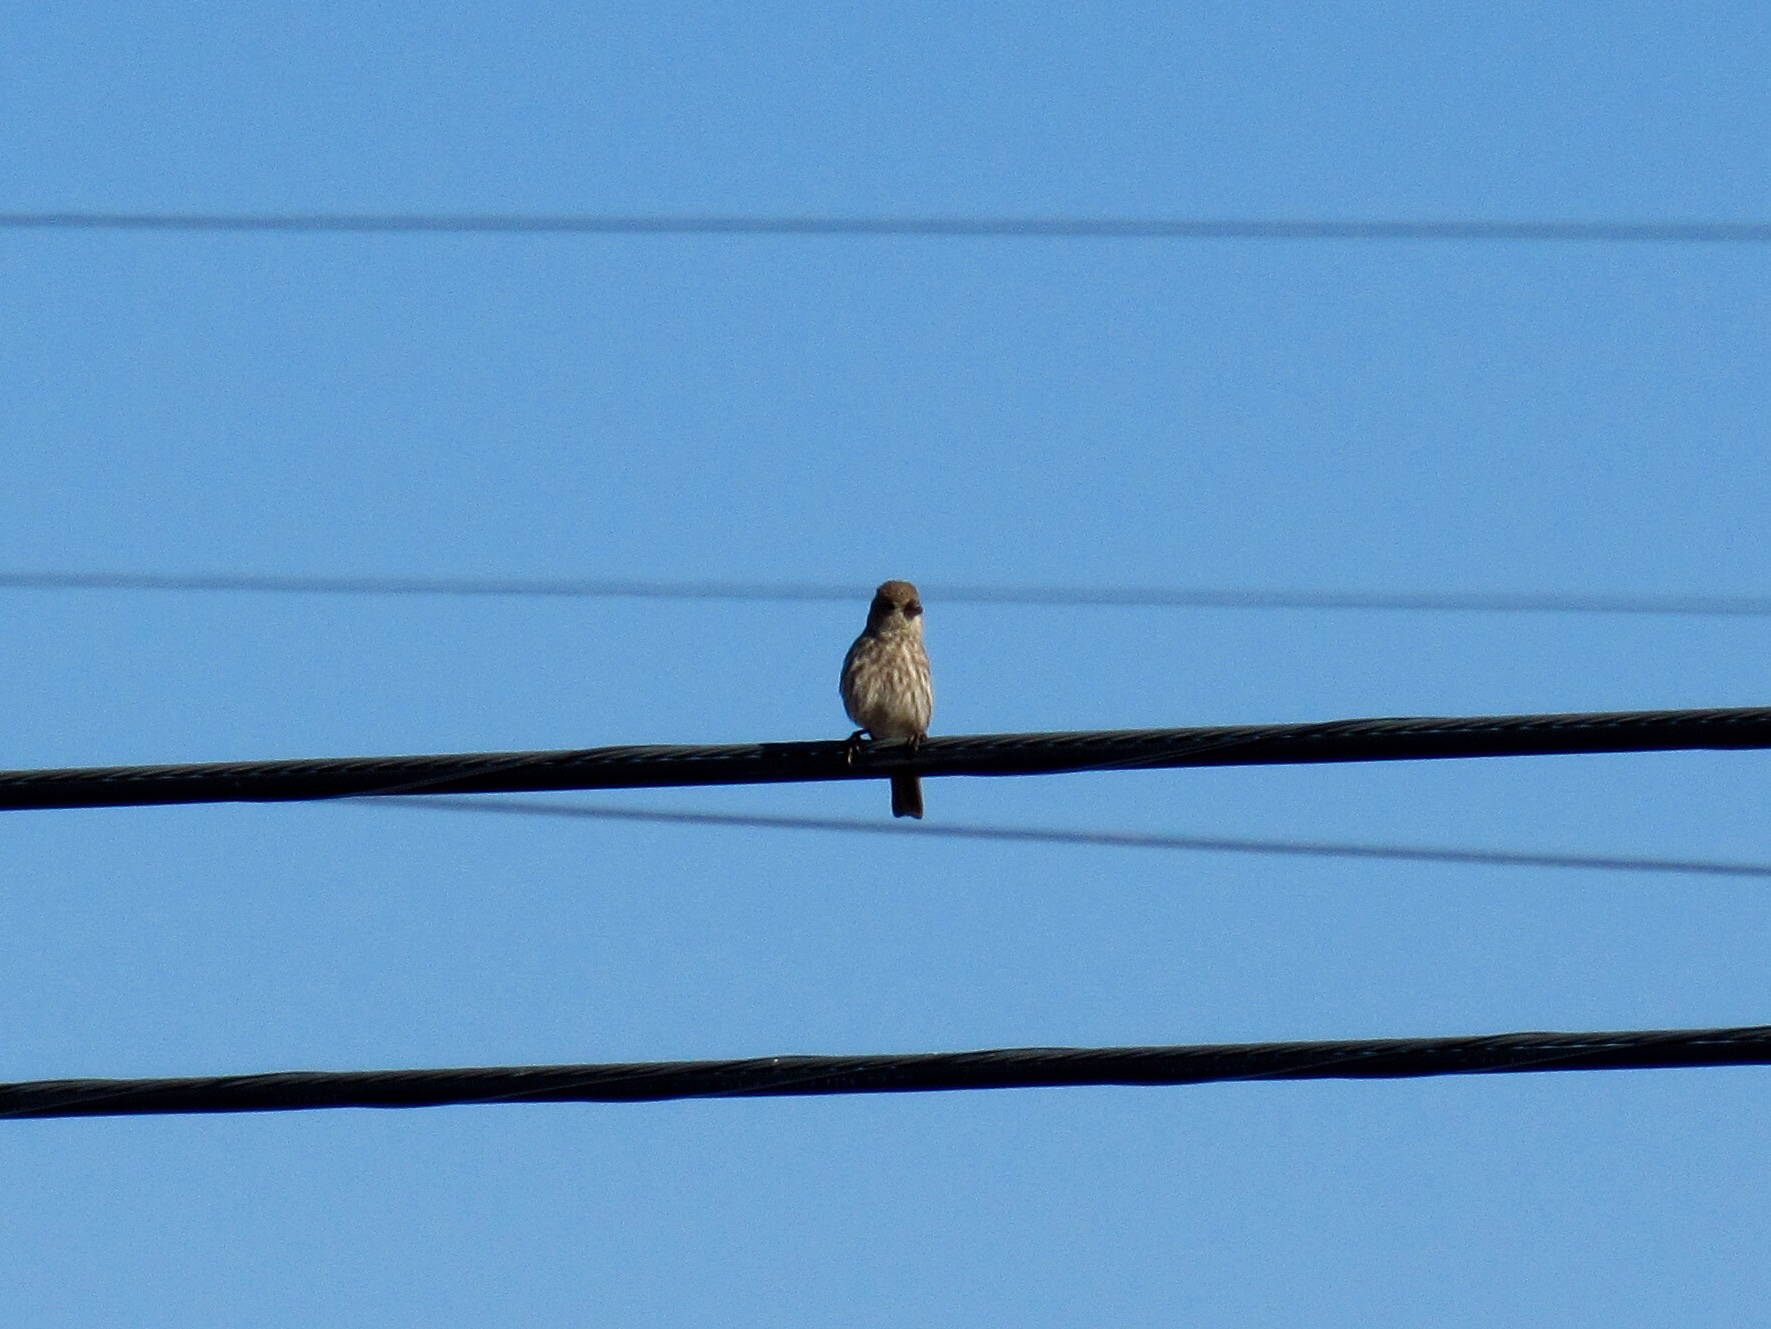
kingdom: Animalia
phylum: Chordata
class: Aves
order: Passeriformes
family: Fringillidae
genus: Haemorhous
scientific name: Haemorhous mexicanus
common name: House finch
